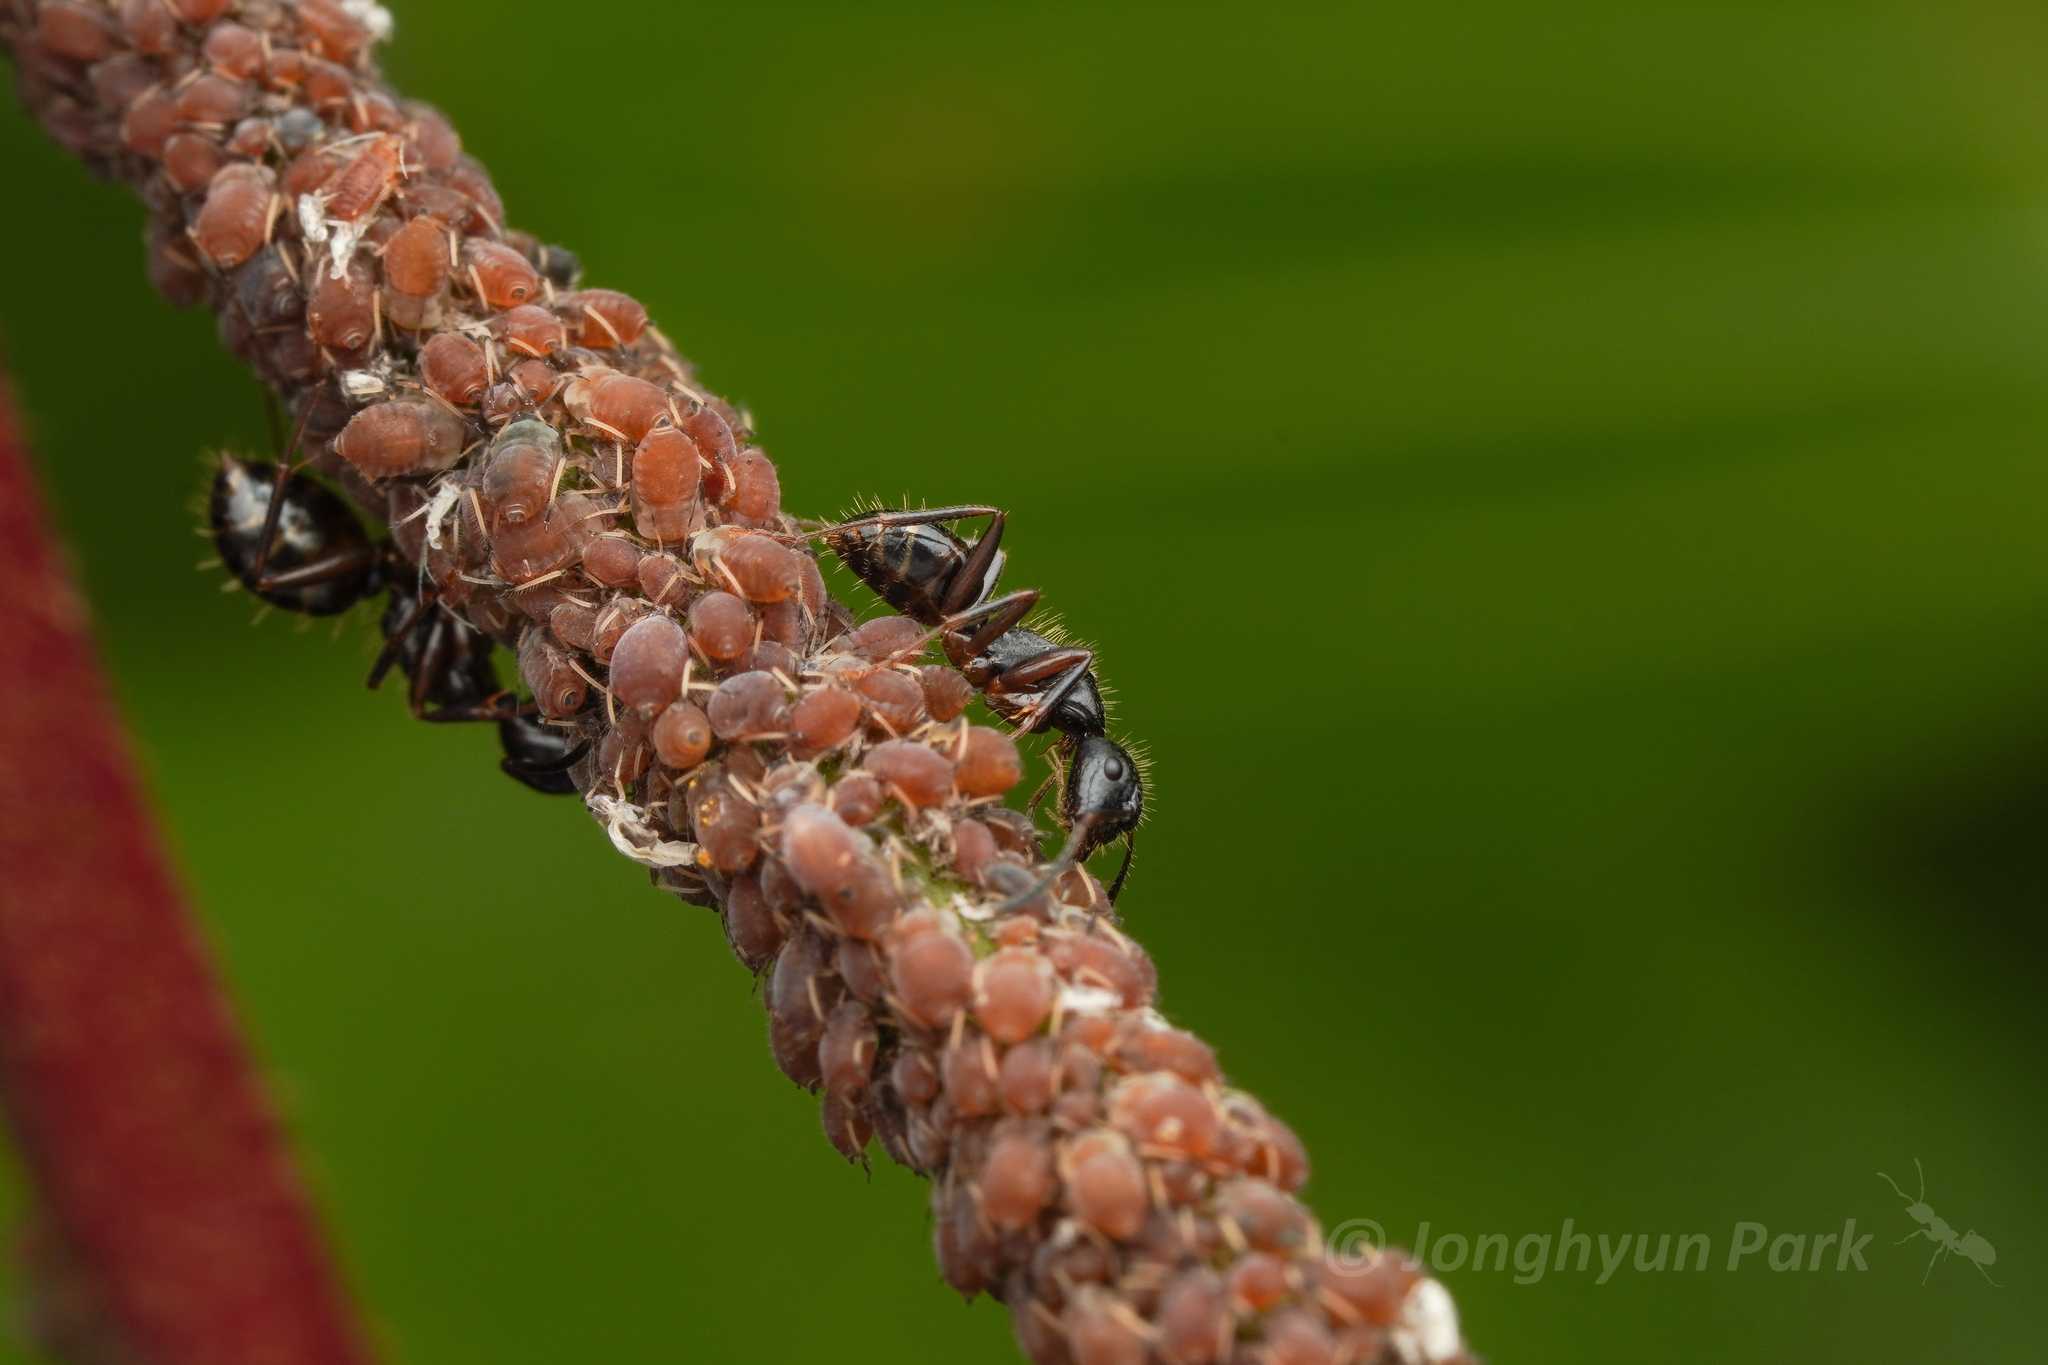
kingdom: Animalia
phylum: Arthropoda
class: Insecta
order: Hymenoptera
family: Formicidae
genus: Camponotus
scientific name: Camponotus nipponensis
